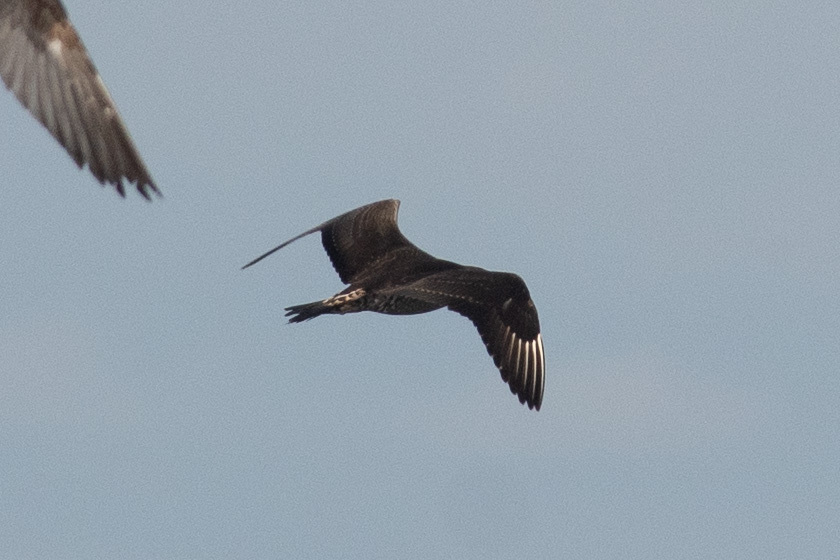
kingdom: Animalia
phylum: Chordata
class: Aves
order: Charadriiformes
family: Stercorariidae
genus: Stercorarius
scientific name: Stercorarius parasiticus
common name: Parasitic jaeger
